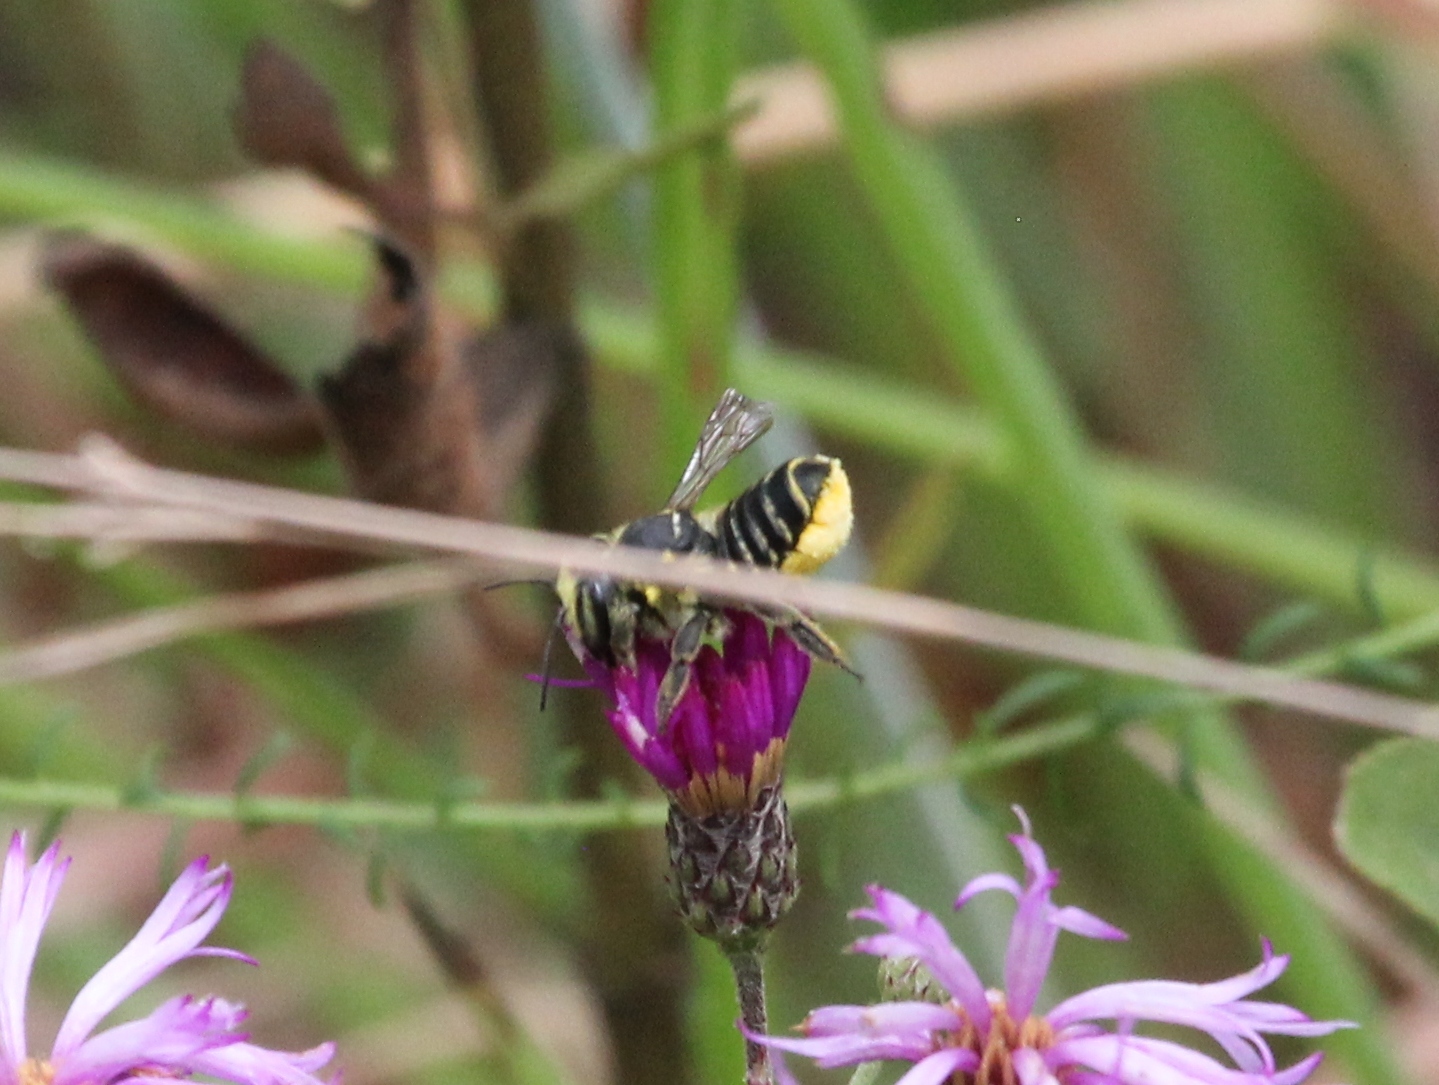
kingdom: Animalia
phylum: Arthropoda
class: Insecta
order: Hymenoptera
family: Megachilidae
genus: Megachile
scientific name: Megachile albitarsis
